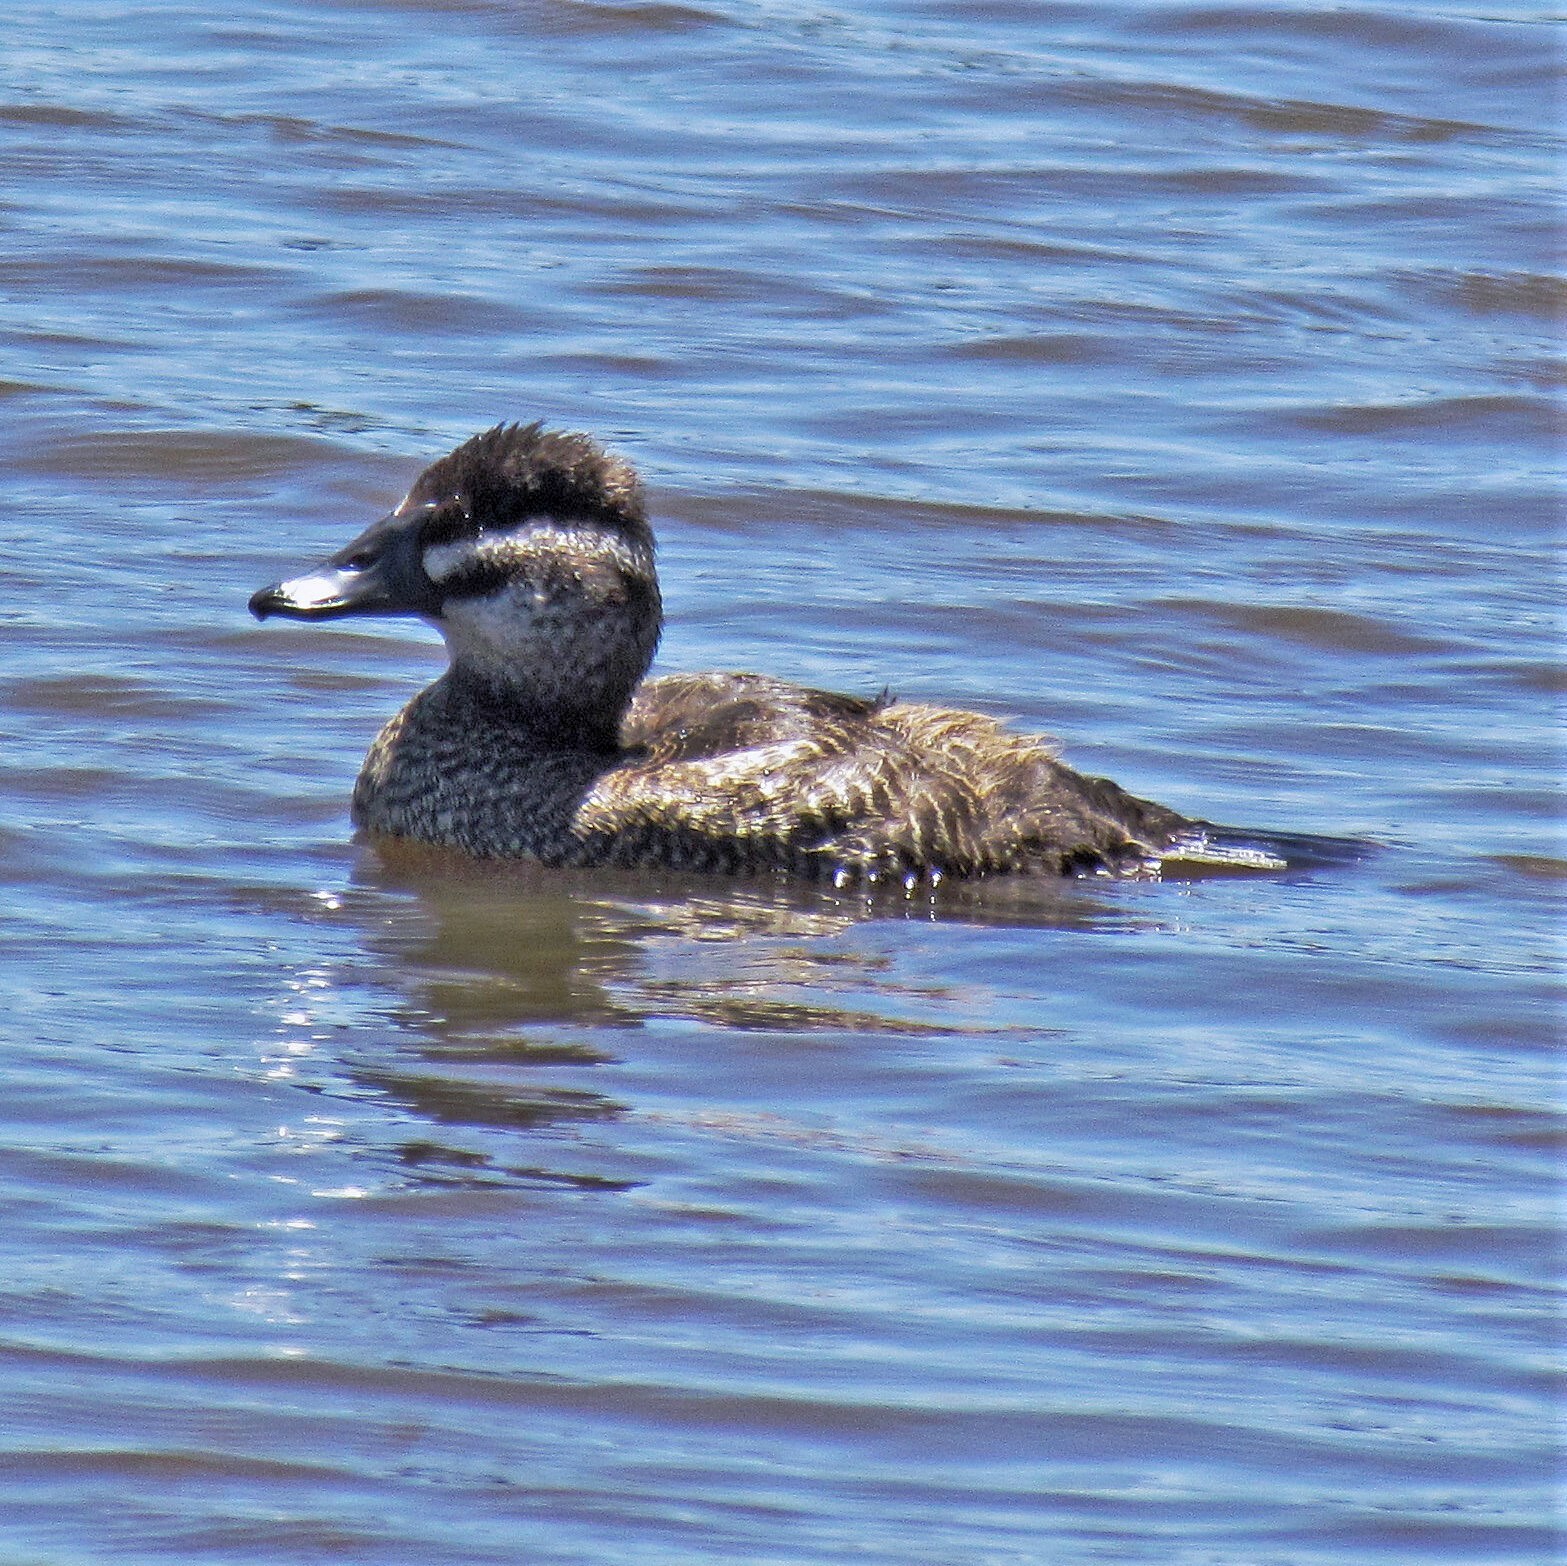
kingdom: Animalia
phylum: Chordata
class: Aves
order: Anseriformes
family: Anatidae
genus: Oxyura
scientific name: Oxyura vittata
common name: Lake duck
